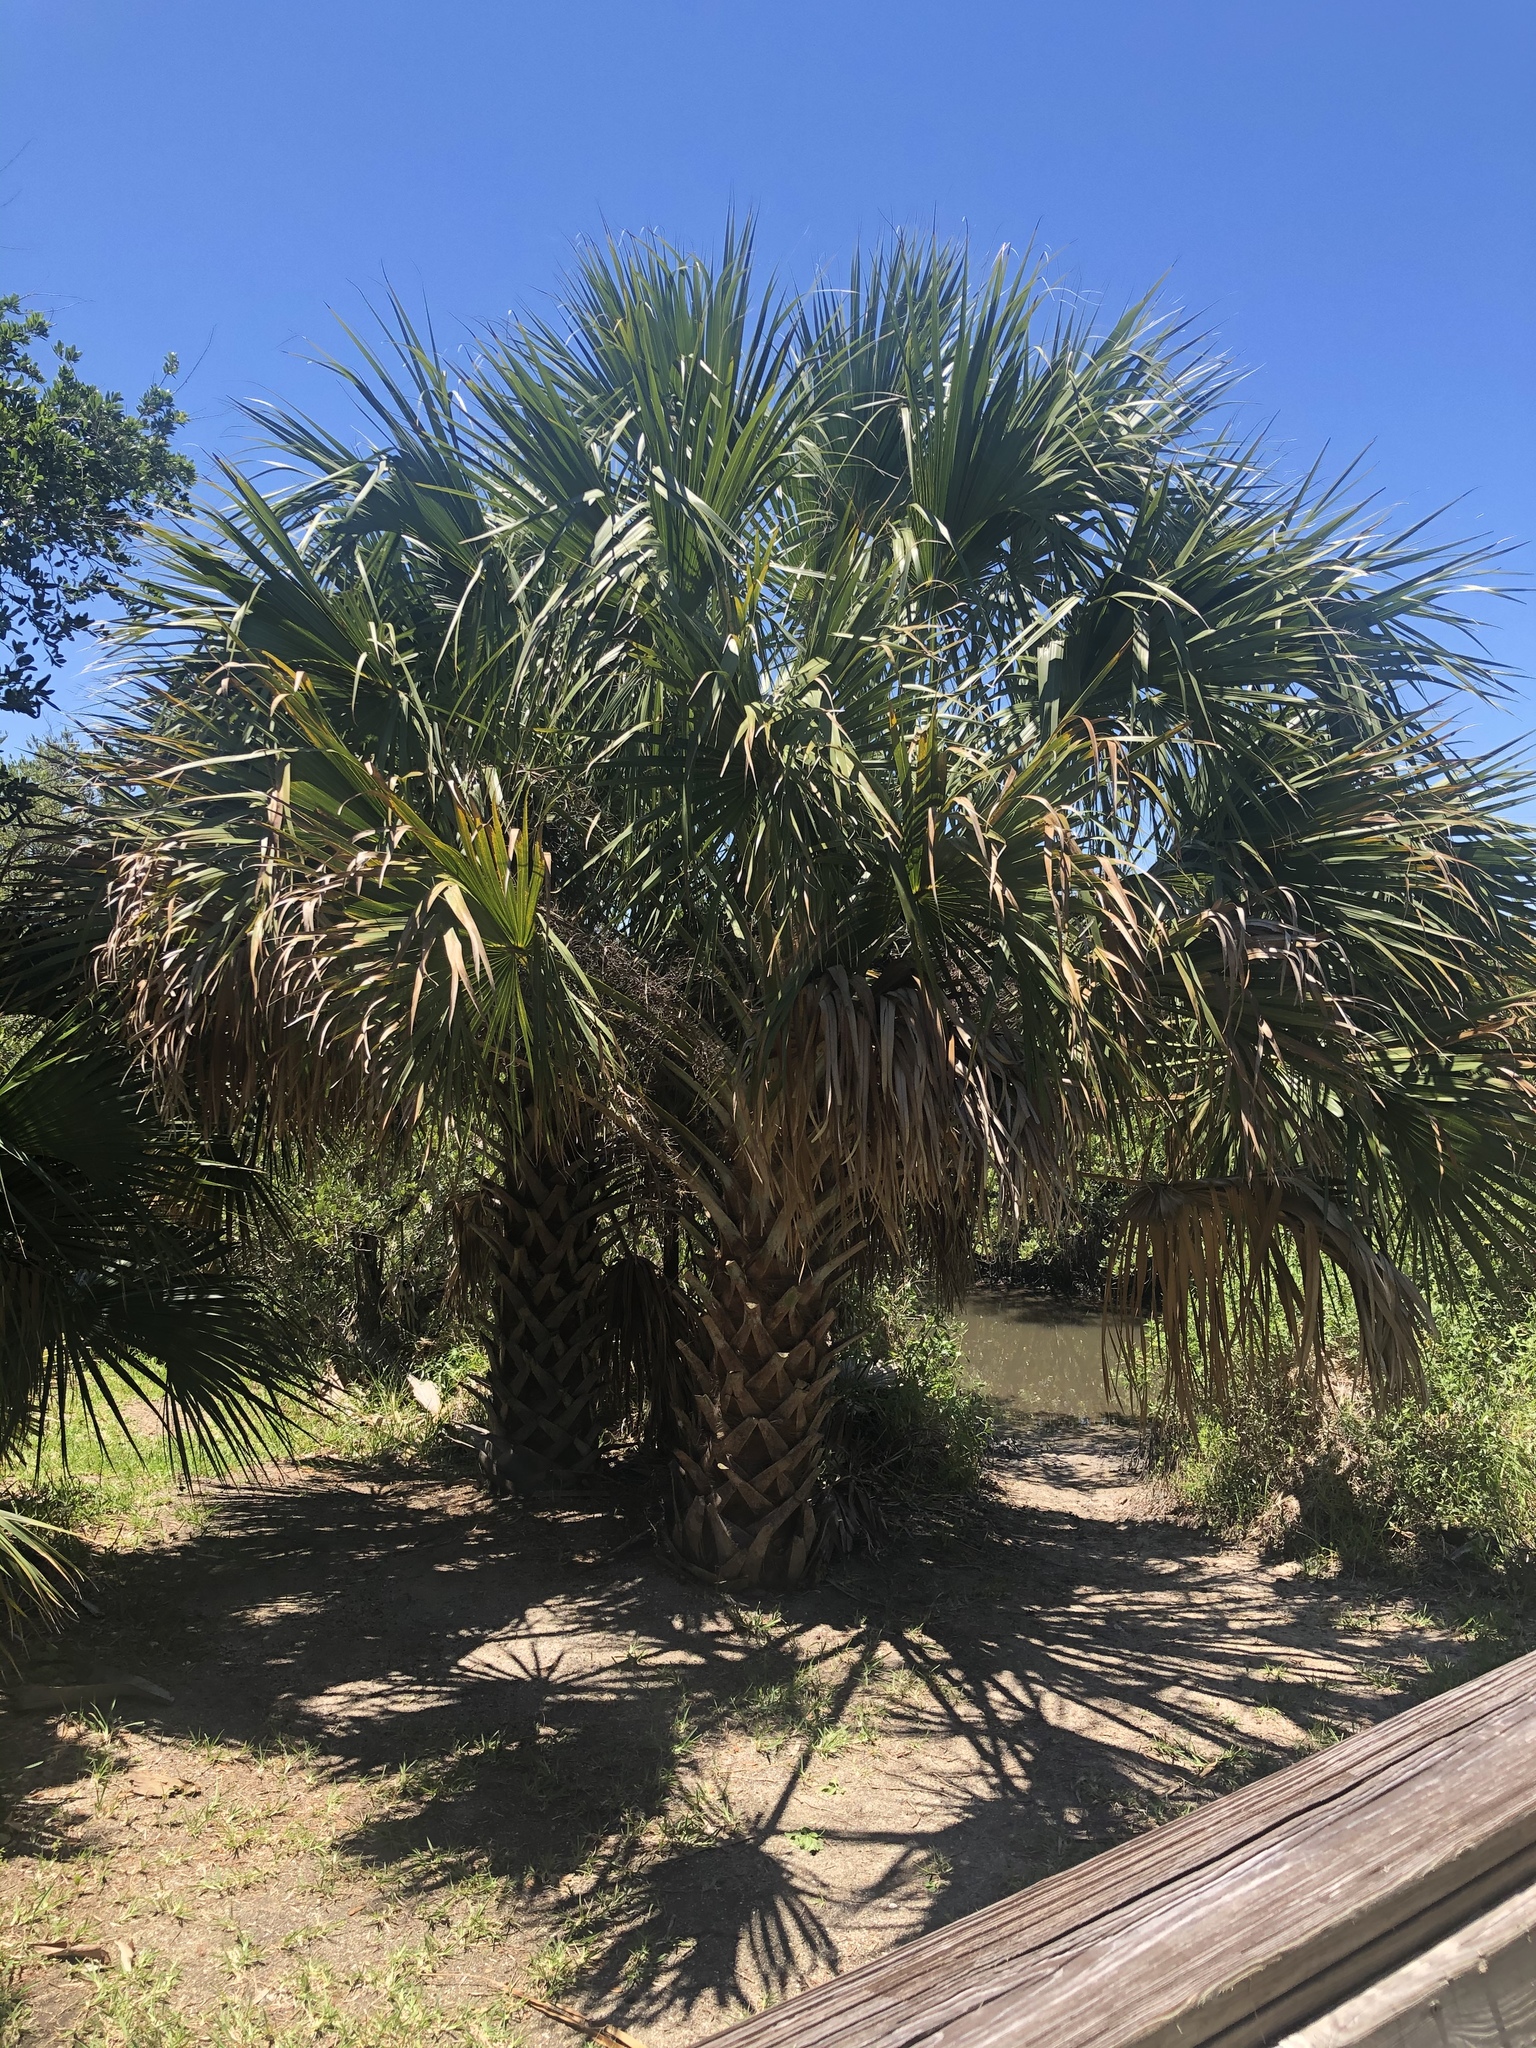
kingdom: Plantae
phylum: Tracheophyta
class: Liliopsida
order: Arecales
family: Arecaceae
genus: Sabal
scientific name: Sabal palmetto
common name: Blue palmetto
